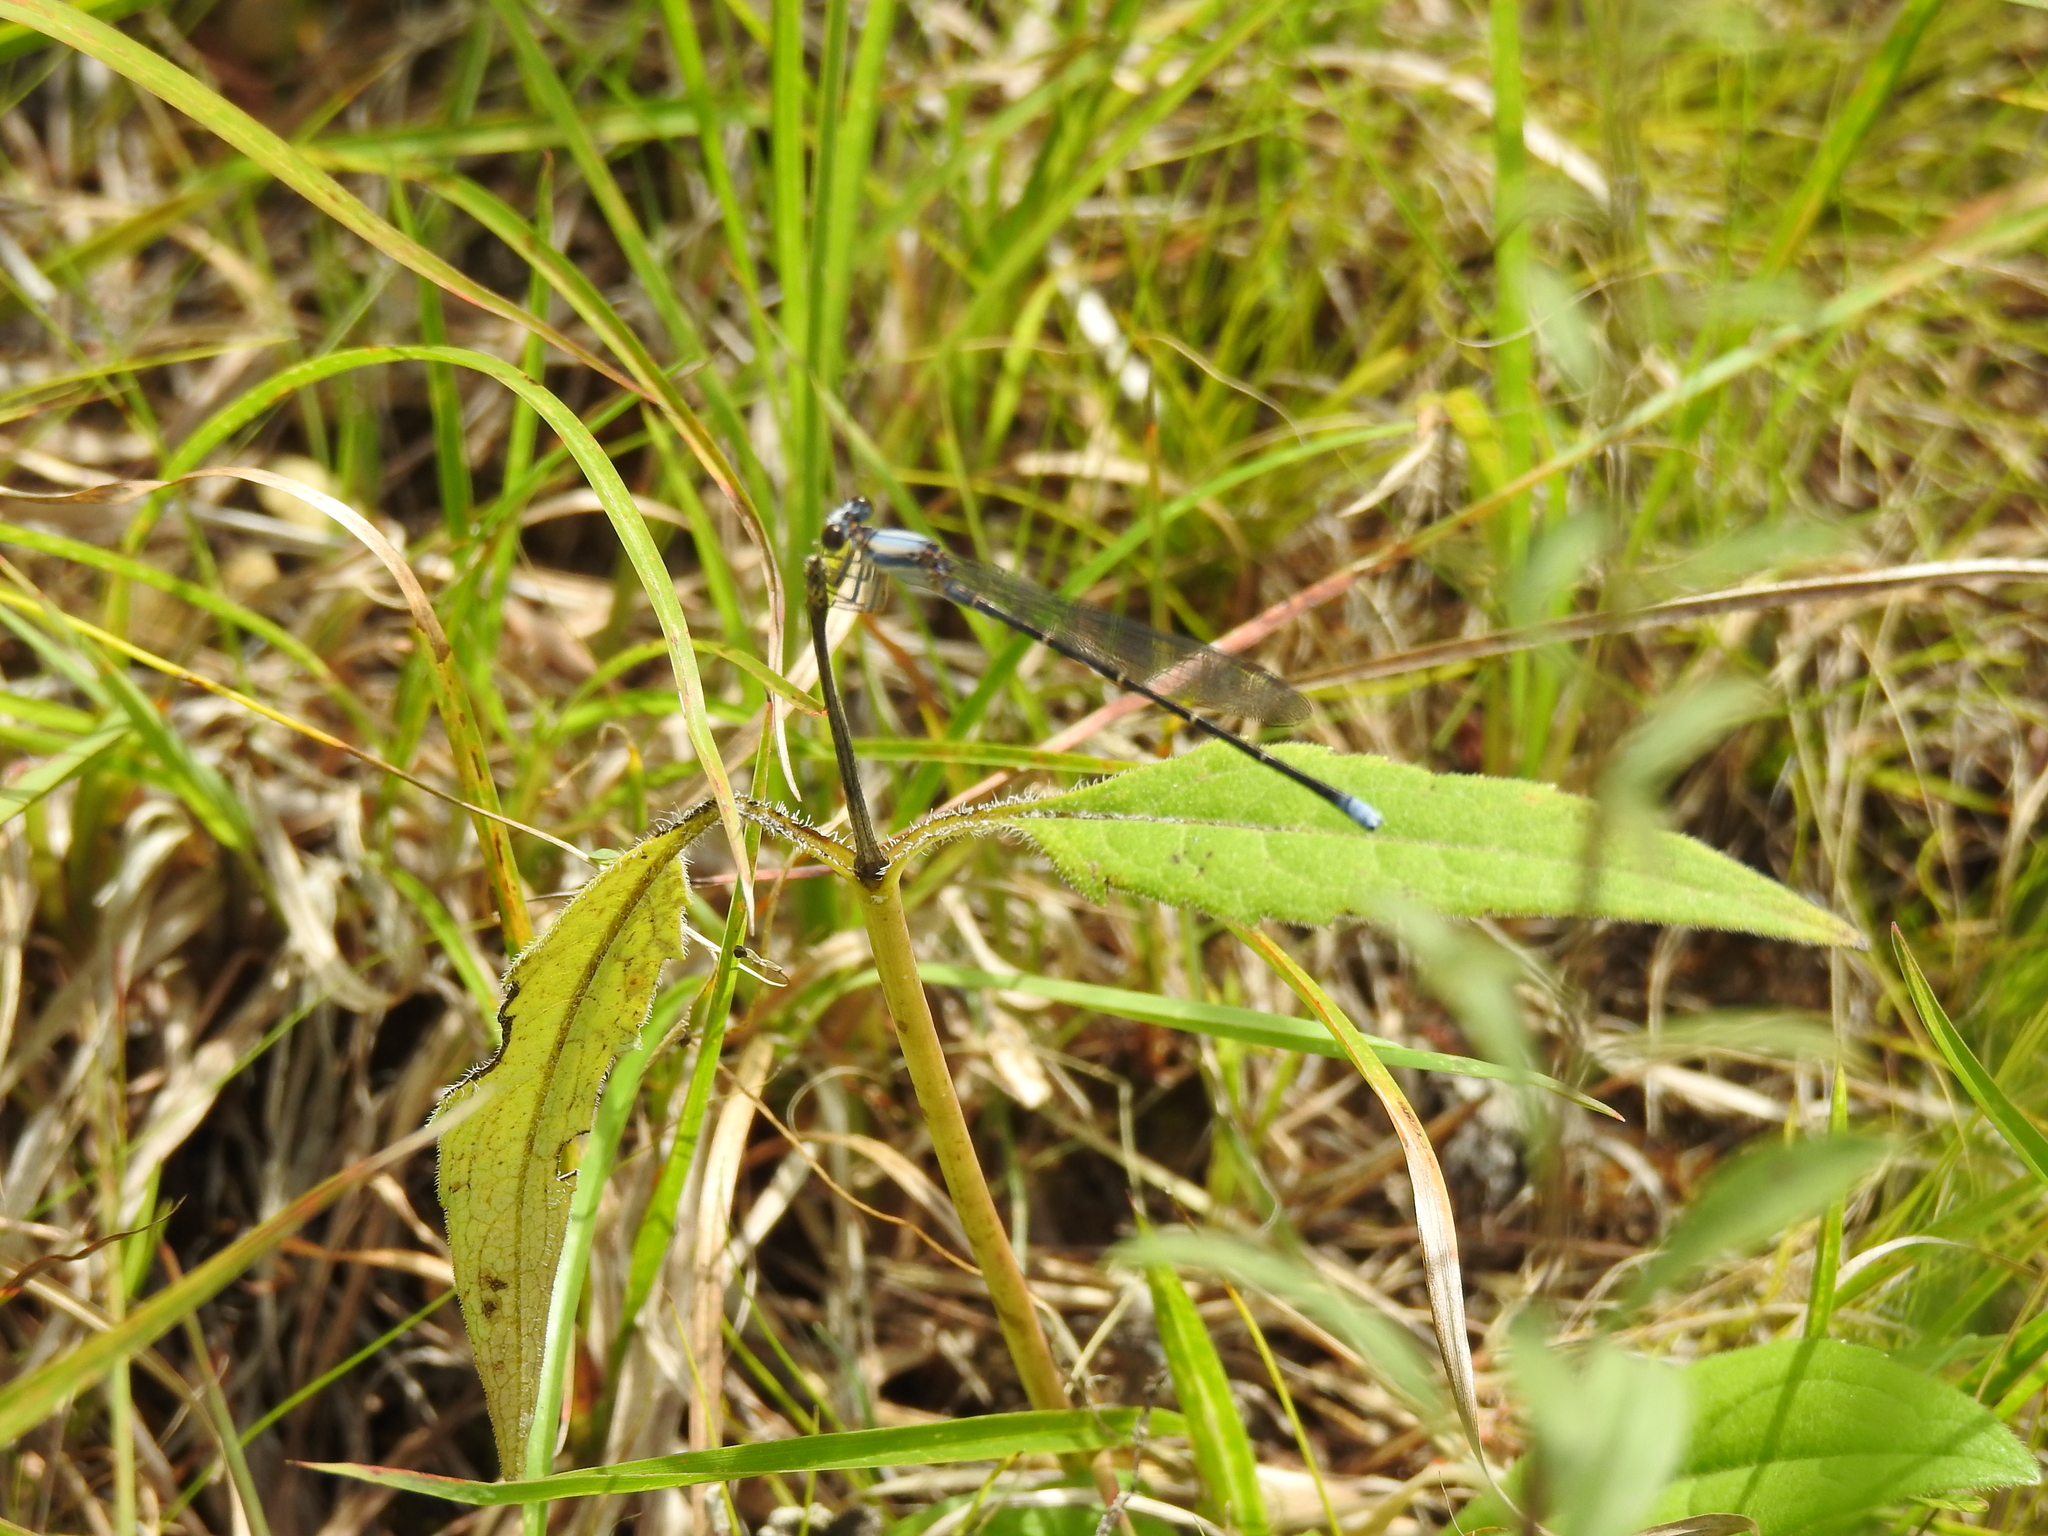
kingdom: Animalia
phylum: Arthropoda
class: Insecta
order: Odonata
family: Coenagrionidae
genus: Argia
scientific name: Argia moesta
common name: Powdered dancer
